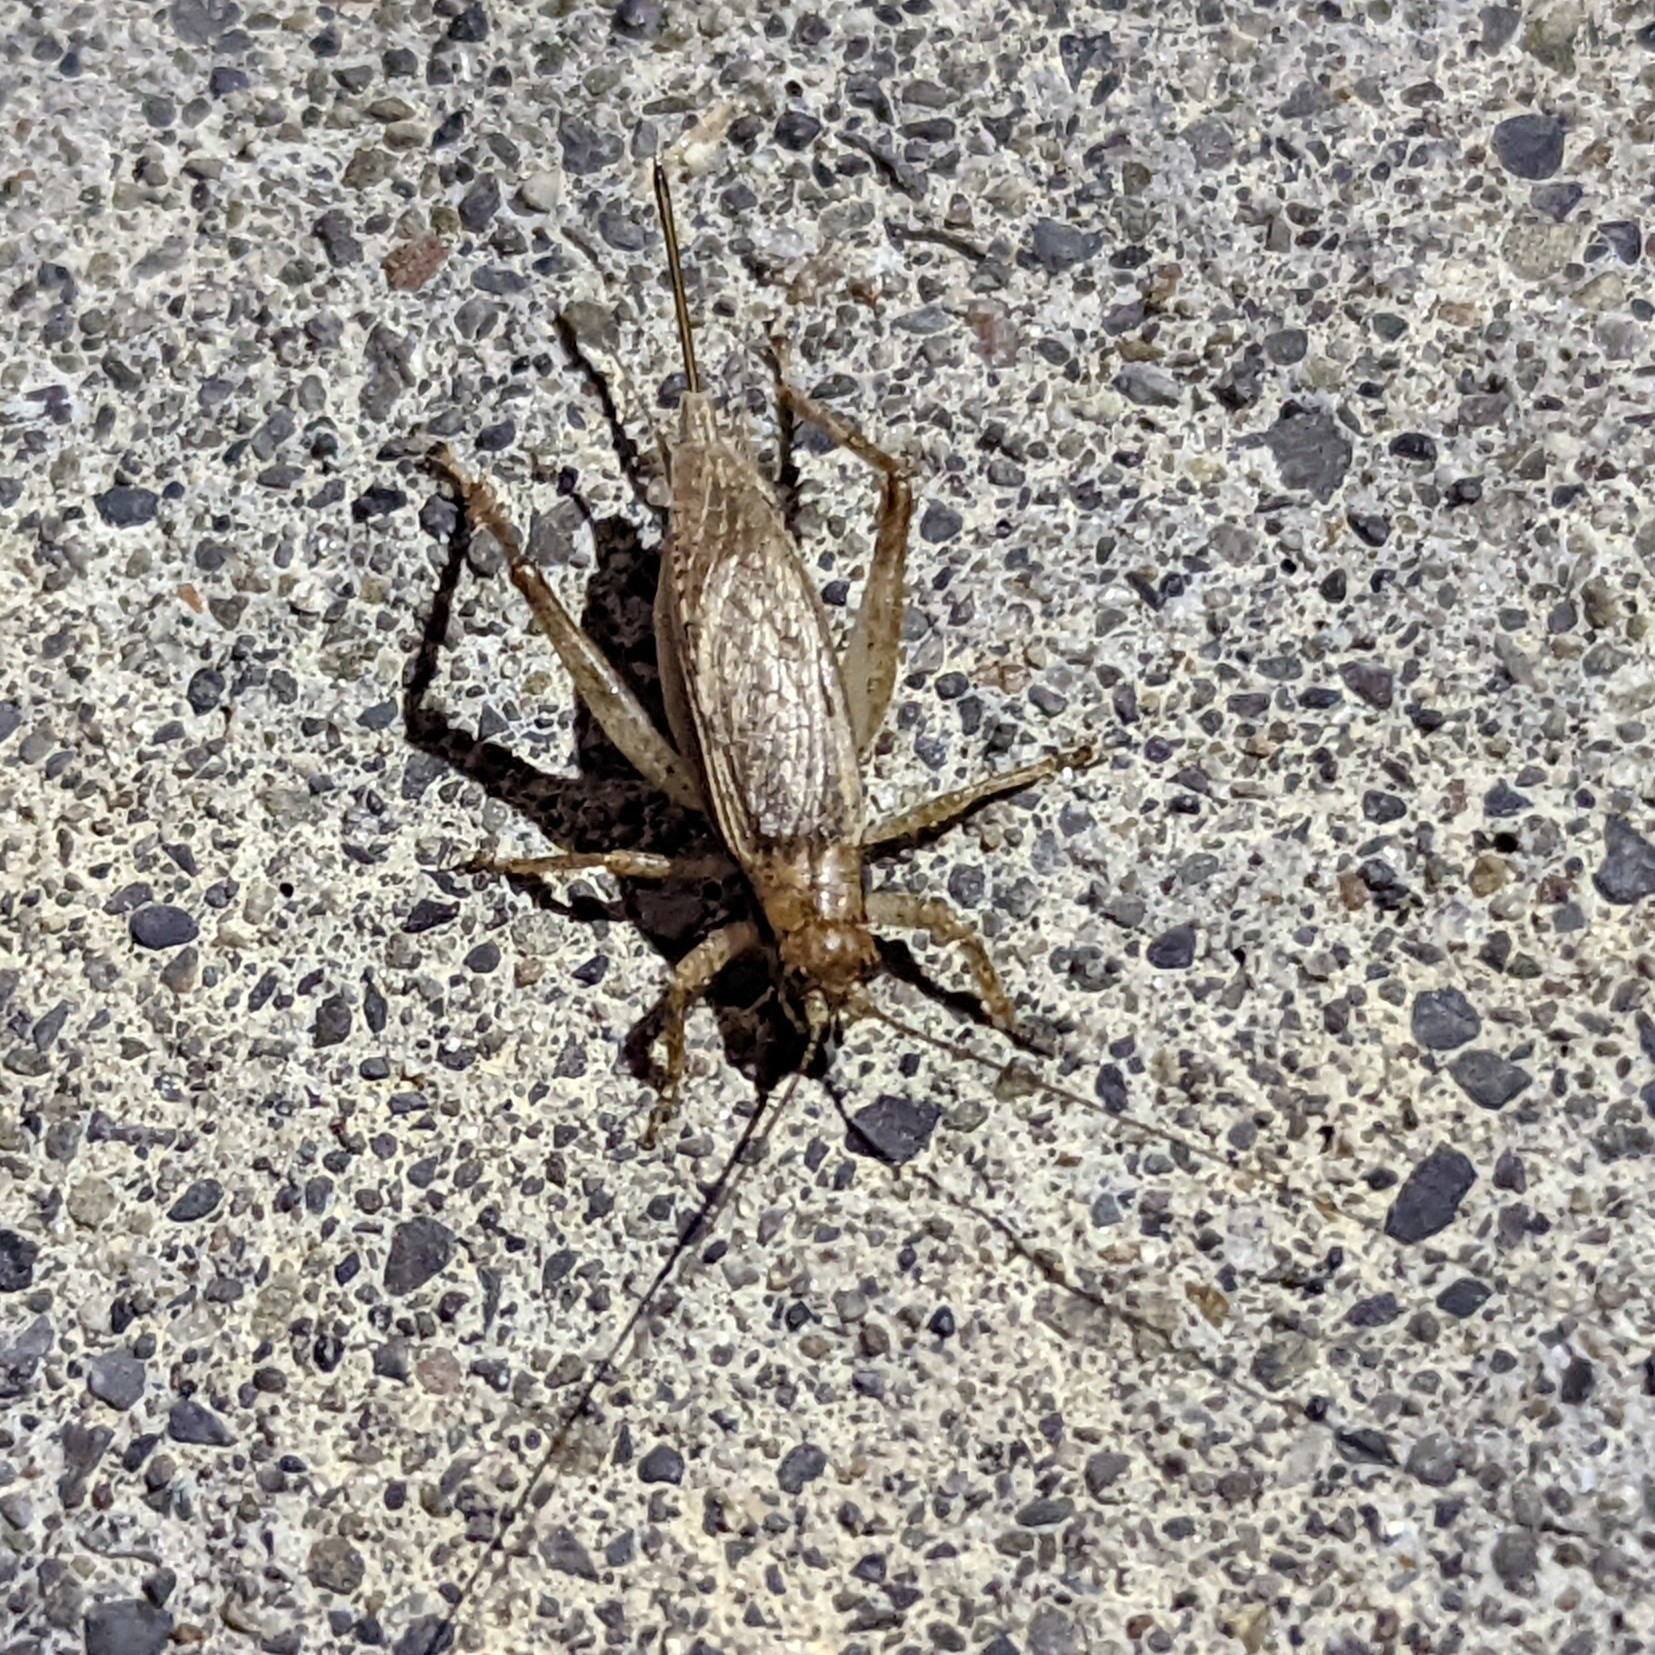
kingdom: Animalia
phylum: Arthropoda
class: Insecta
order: Orthoptera
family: Gryllidae
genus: Hapithus
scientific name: Hapithus saltator
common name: Jumping bush cricket
